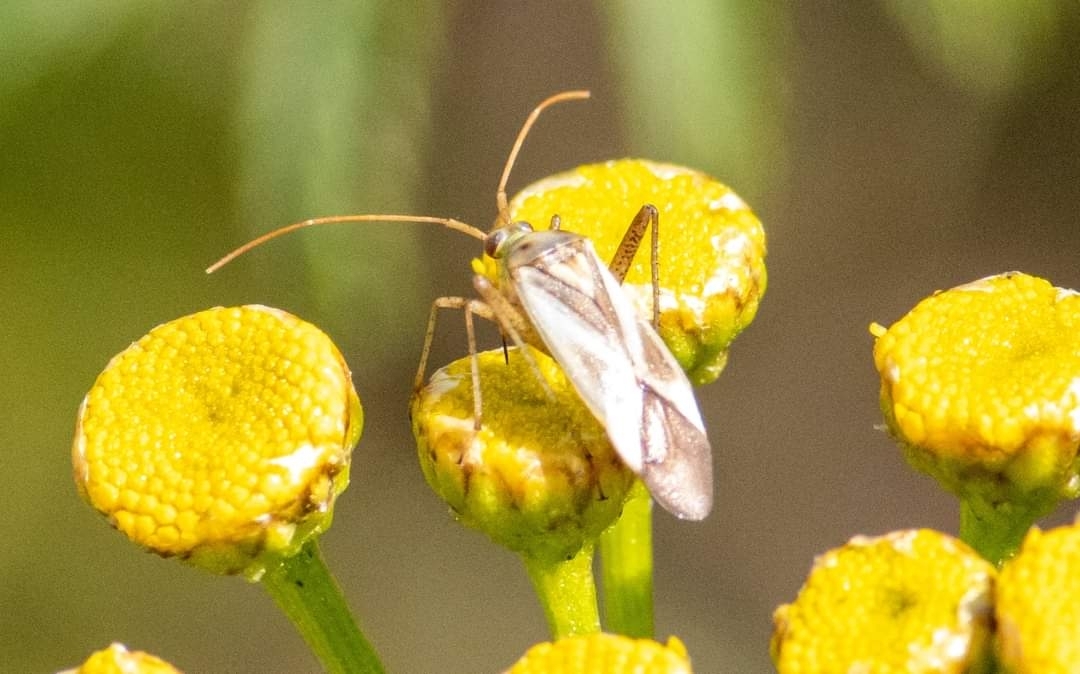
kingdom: Animalia
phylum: Arthropoda
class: Insecta
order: Hemiptera
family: Miridae
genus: Adelphocoris
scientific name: Adelphocoris lineolatus
